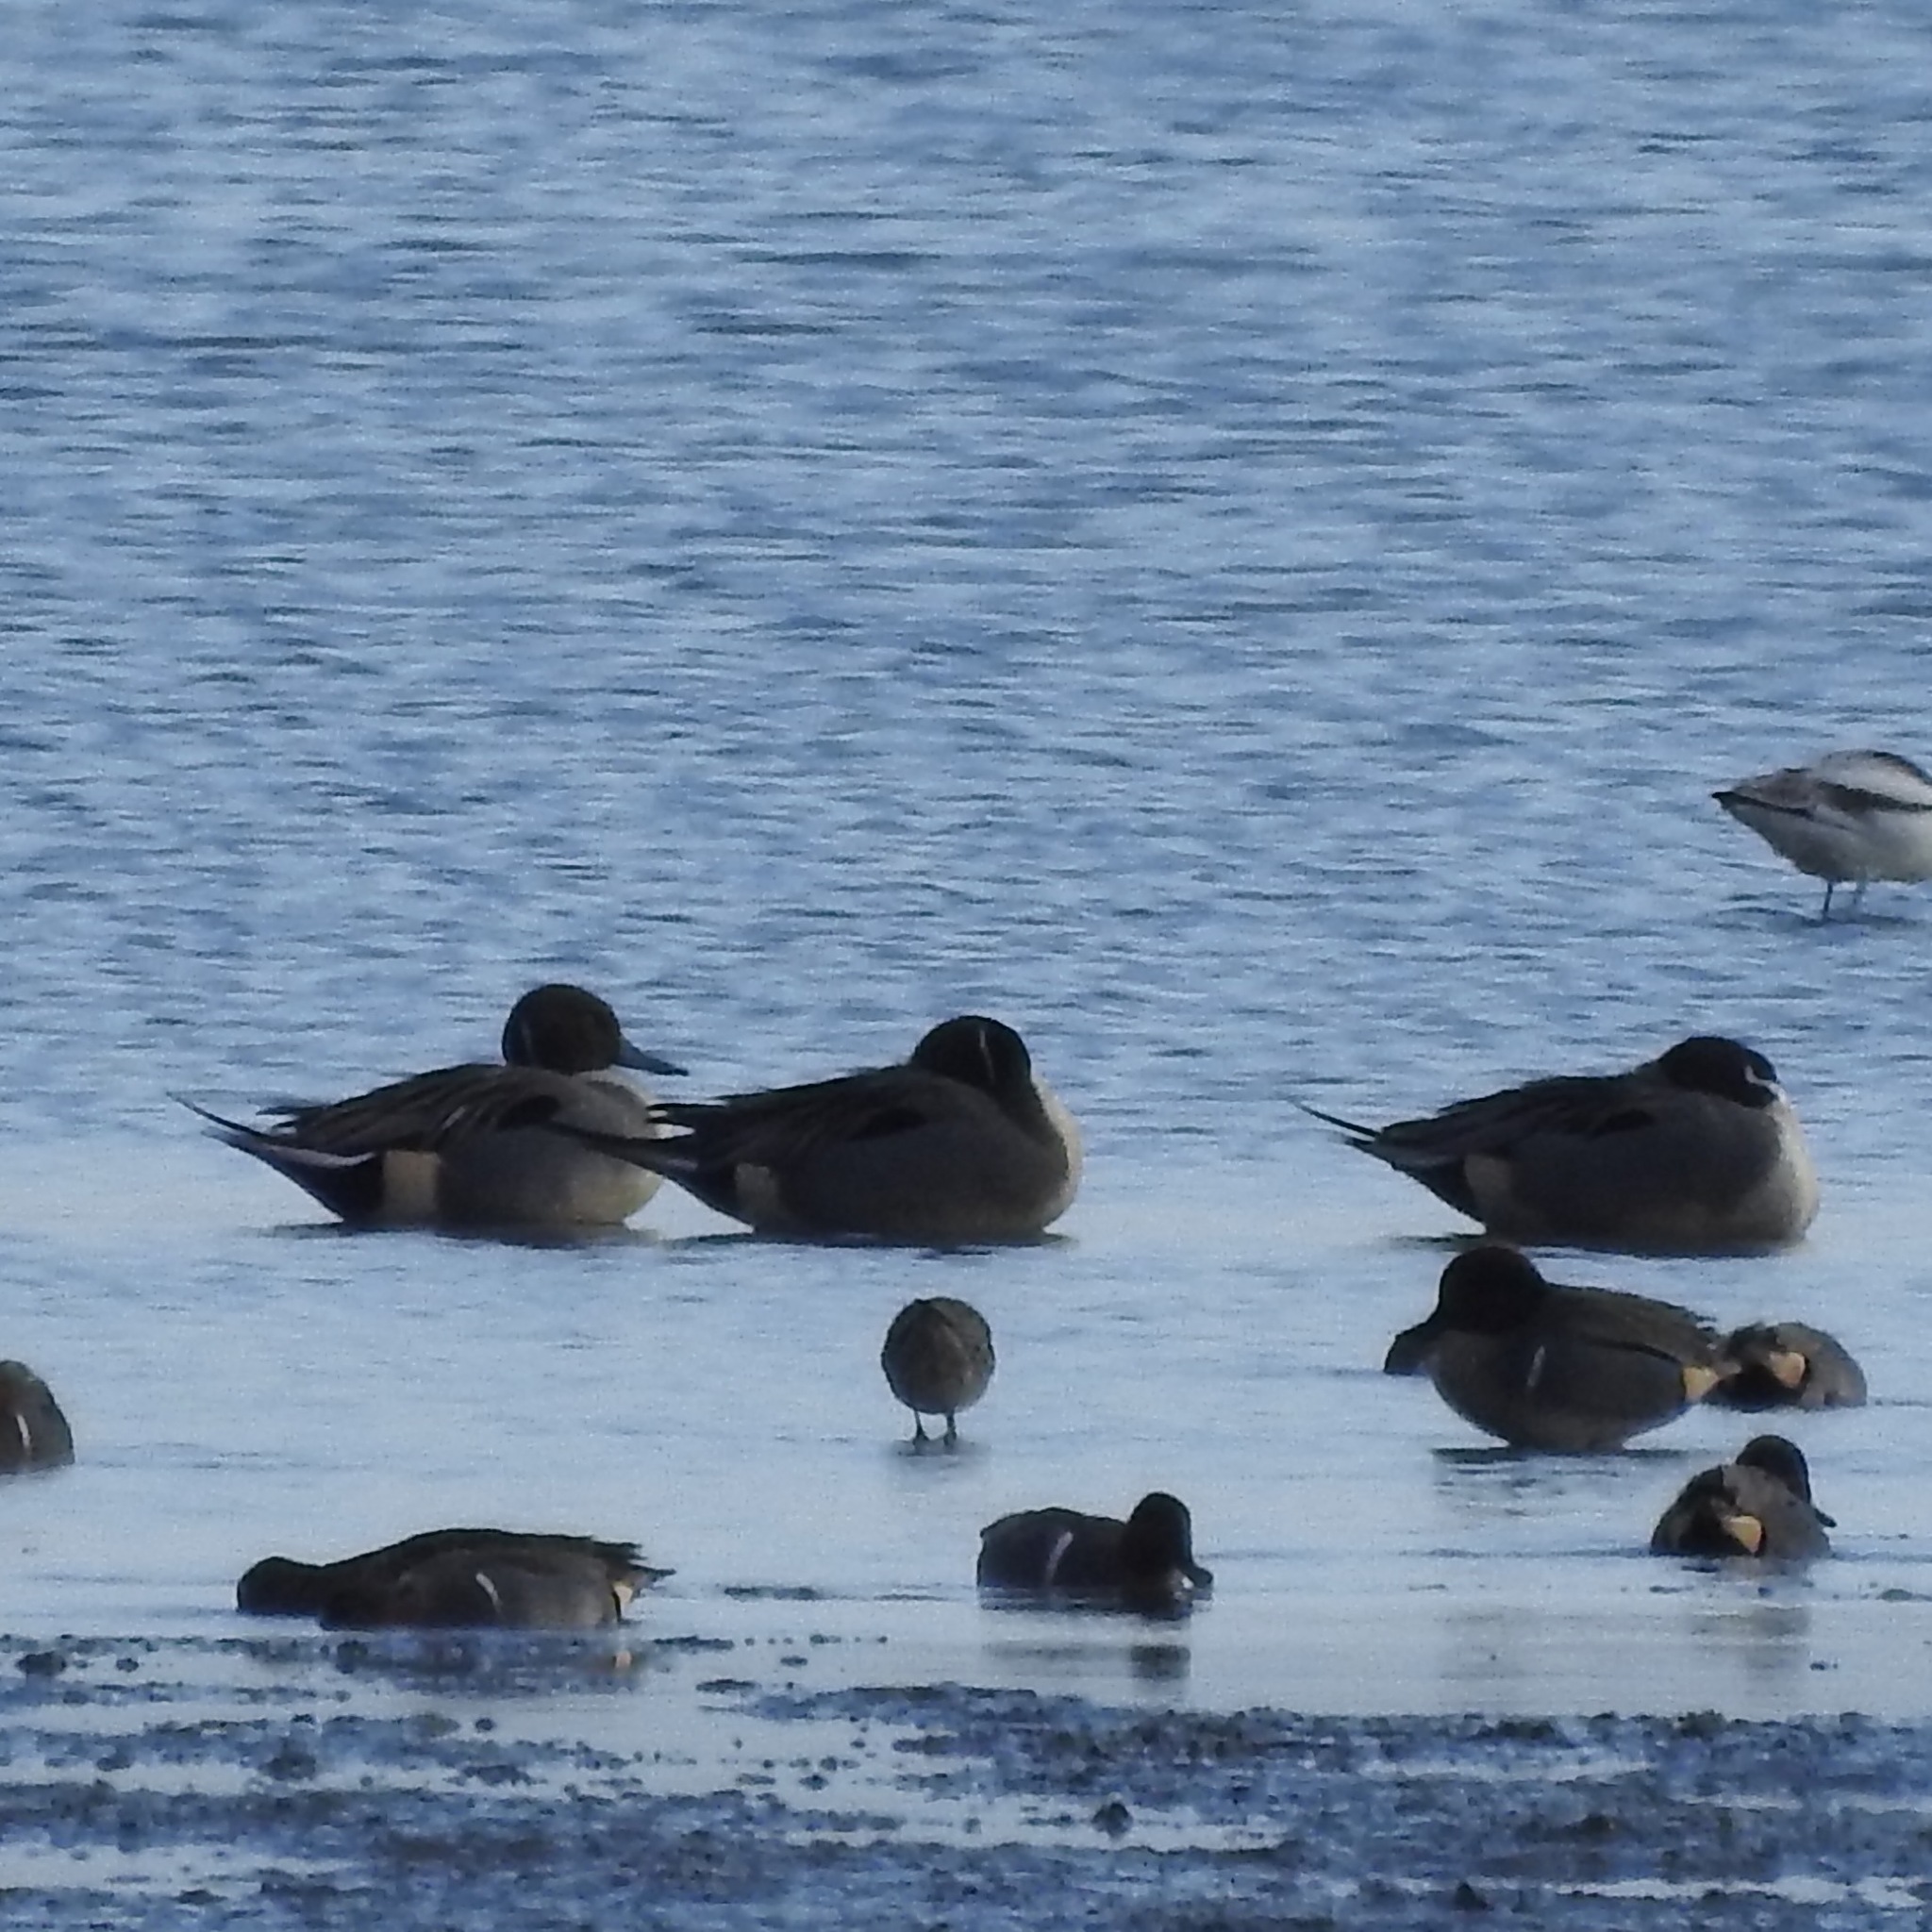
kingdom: Animalia
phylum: Chordata
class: Aves
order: Anseriformes
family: Anatidae
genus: Anas
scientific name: Anas acuta
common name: Northern pintail
